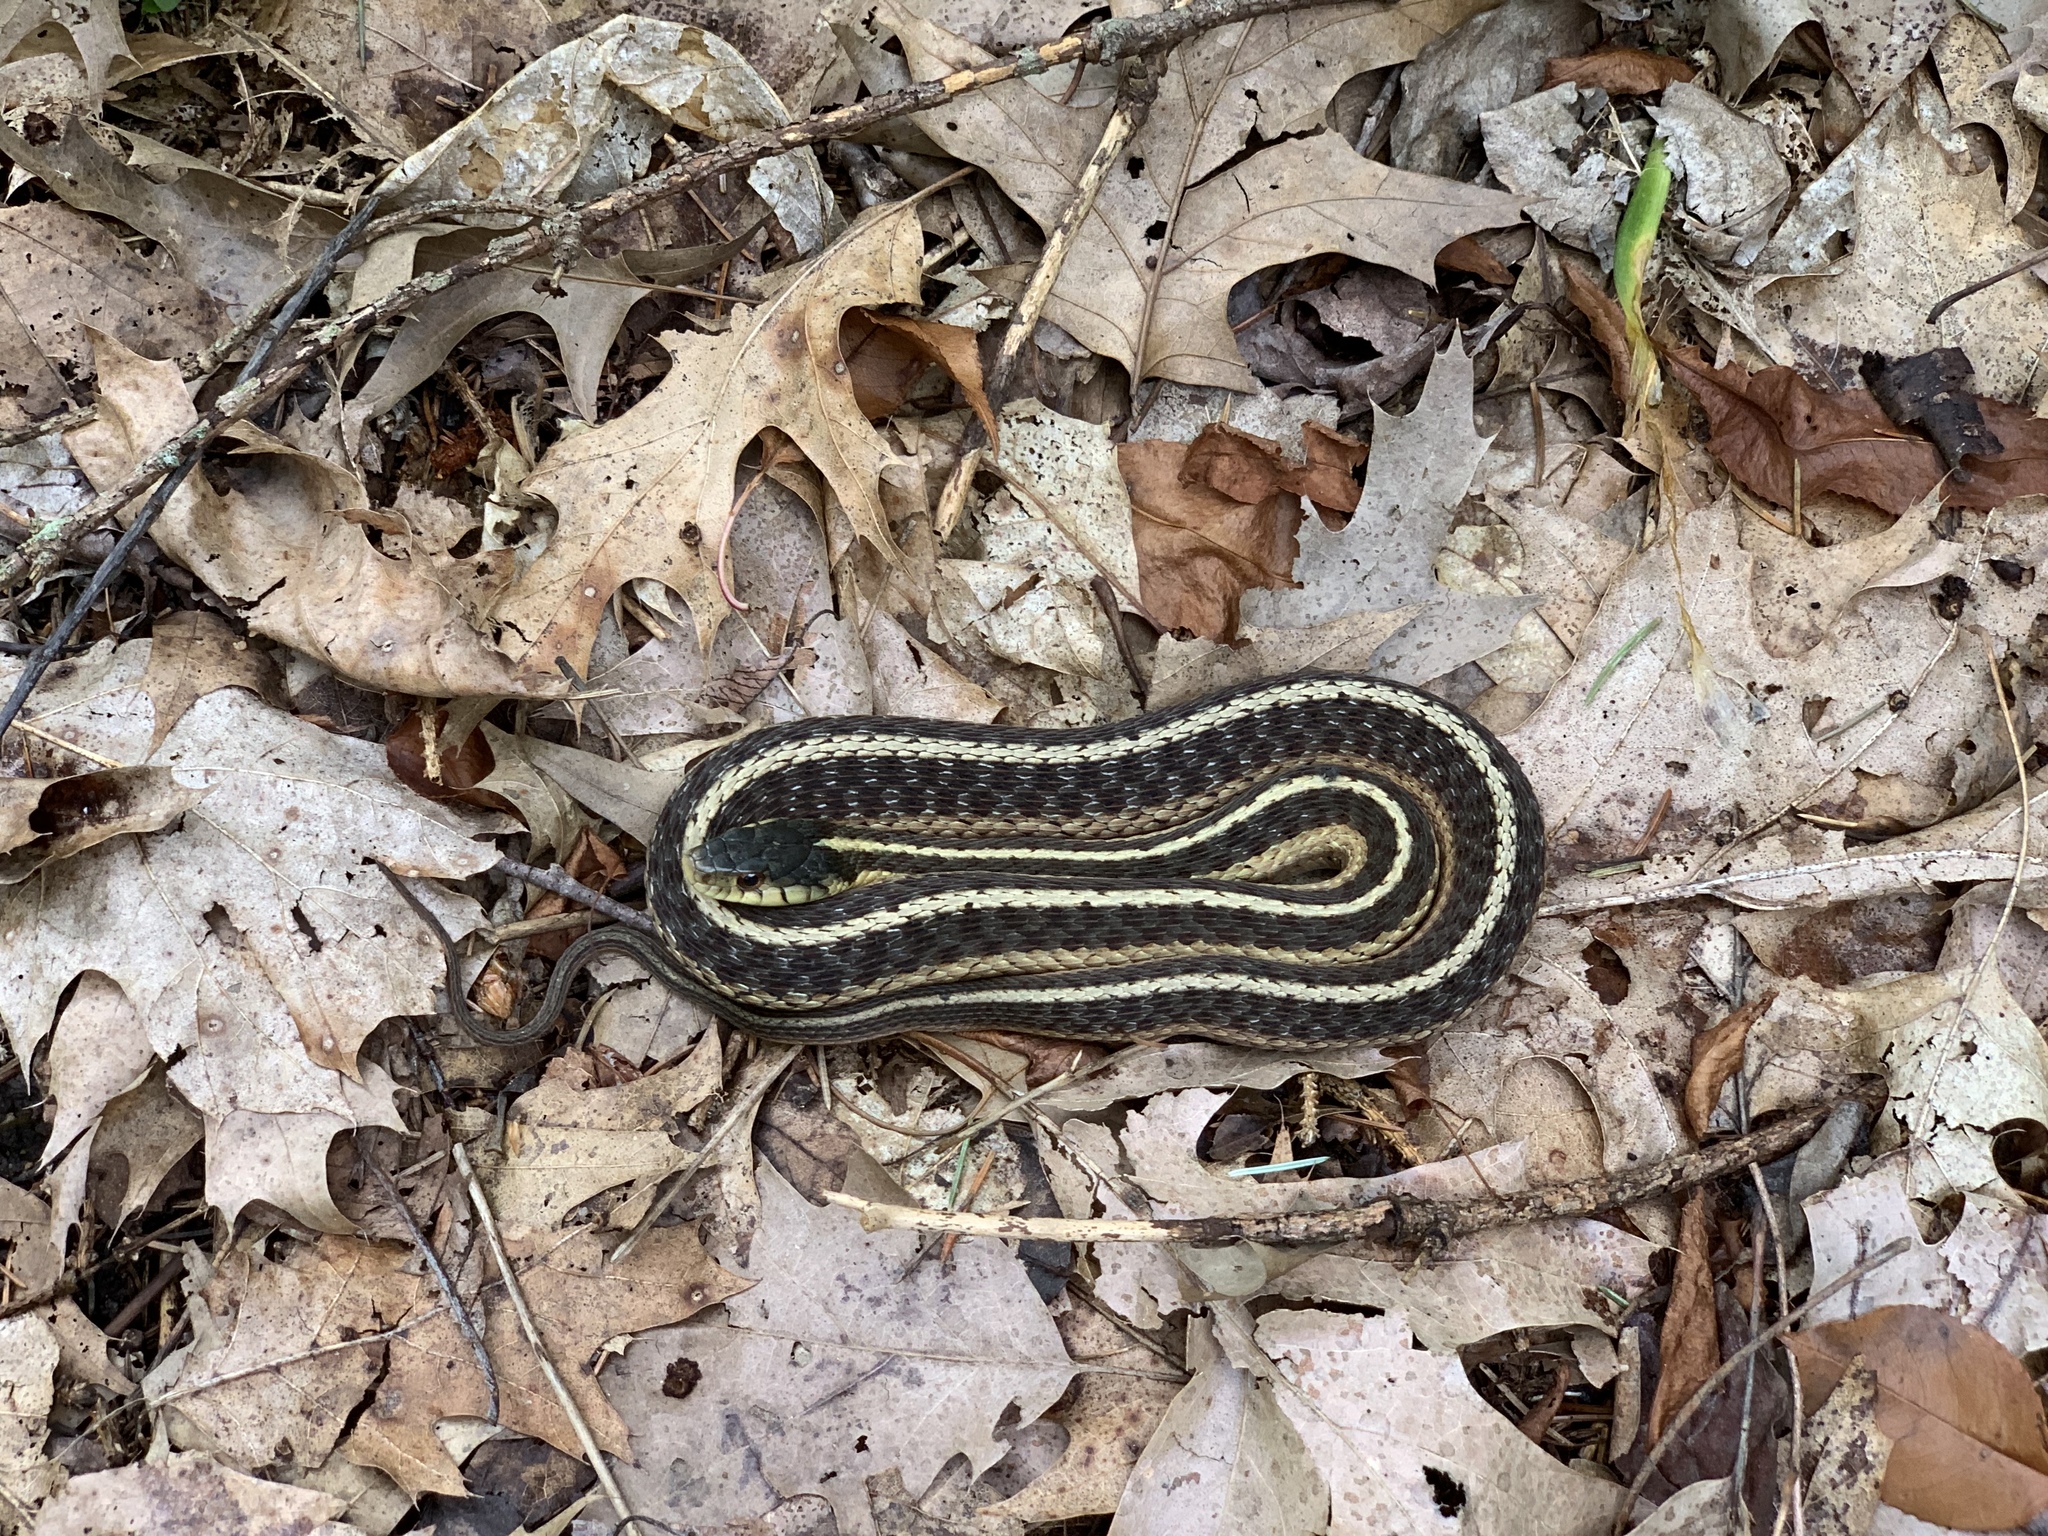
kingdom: Animalia
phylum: Chordata
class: Squamata
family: Colubridae
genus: Thamnophis
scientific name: Thamnophis sirtalis
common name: Common garter snake
